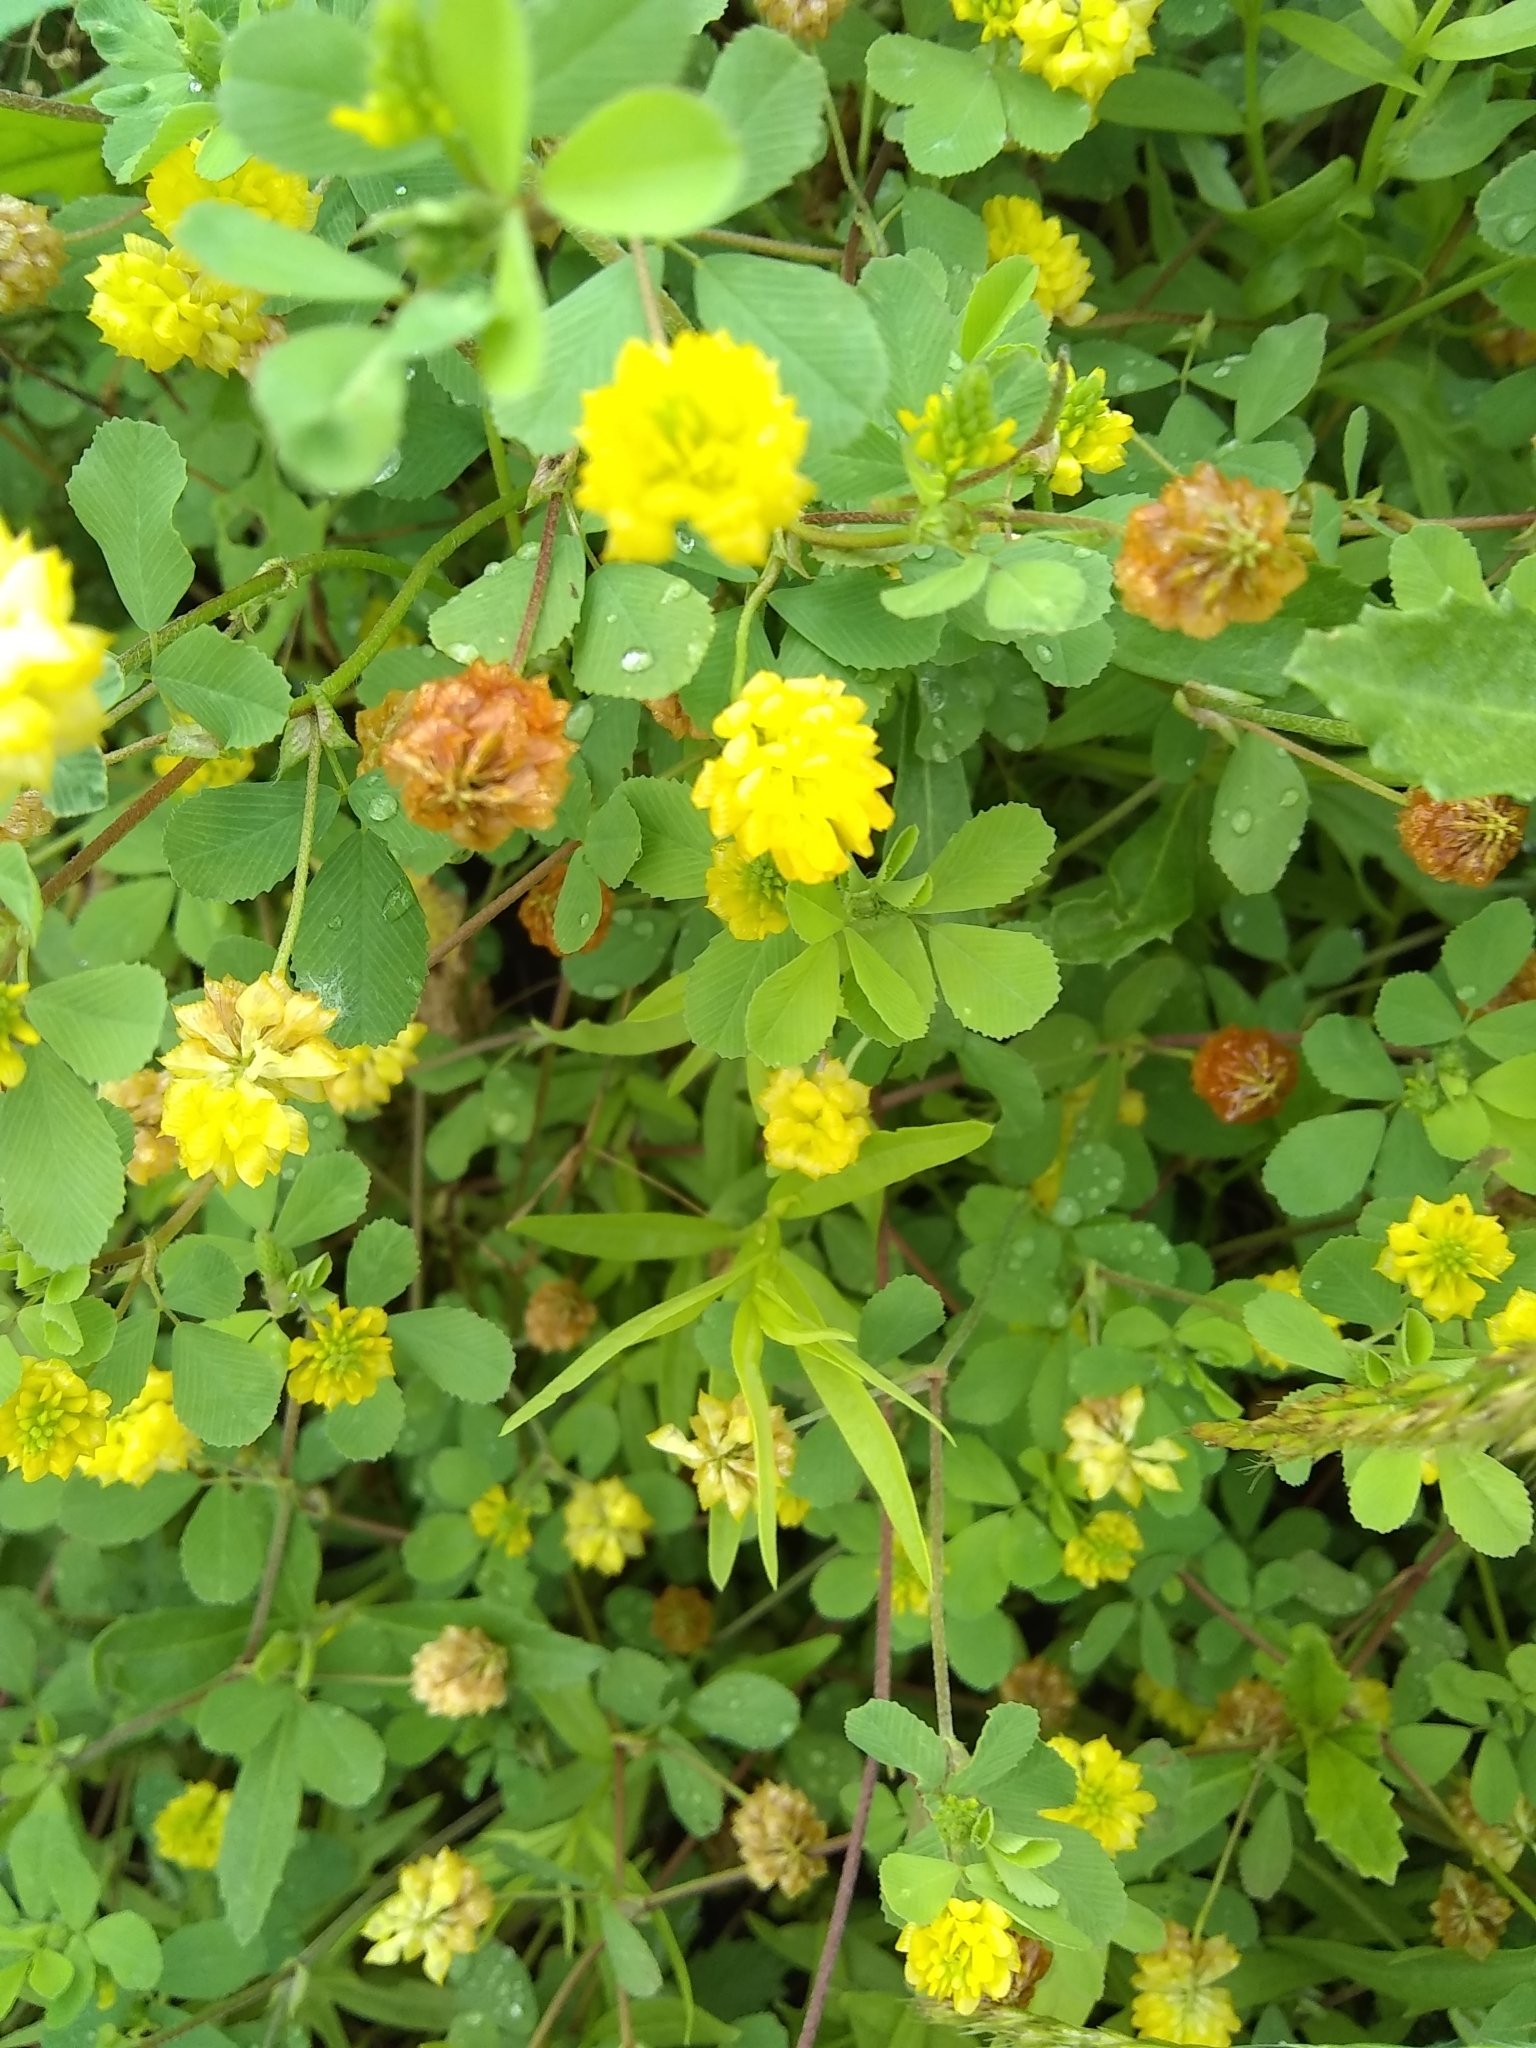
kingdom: Plantae
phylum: Tracheophyta
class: Magnoliopsida
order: Fabales
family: Fabaceae
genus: Trifolium
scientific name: Trifolium campestre
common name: Field clover
